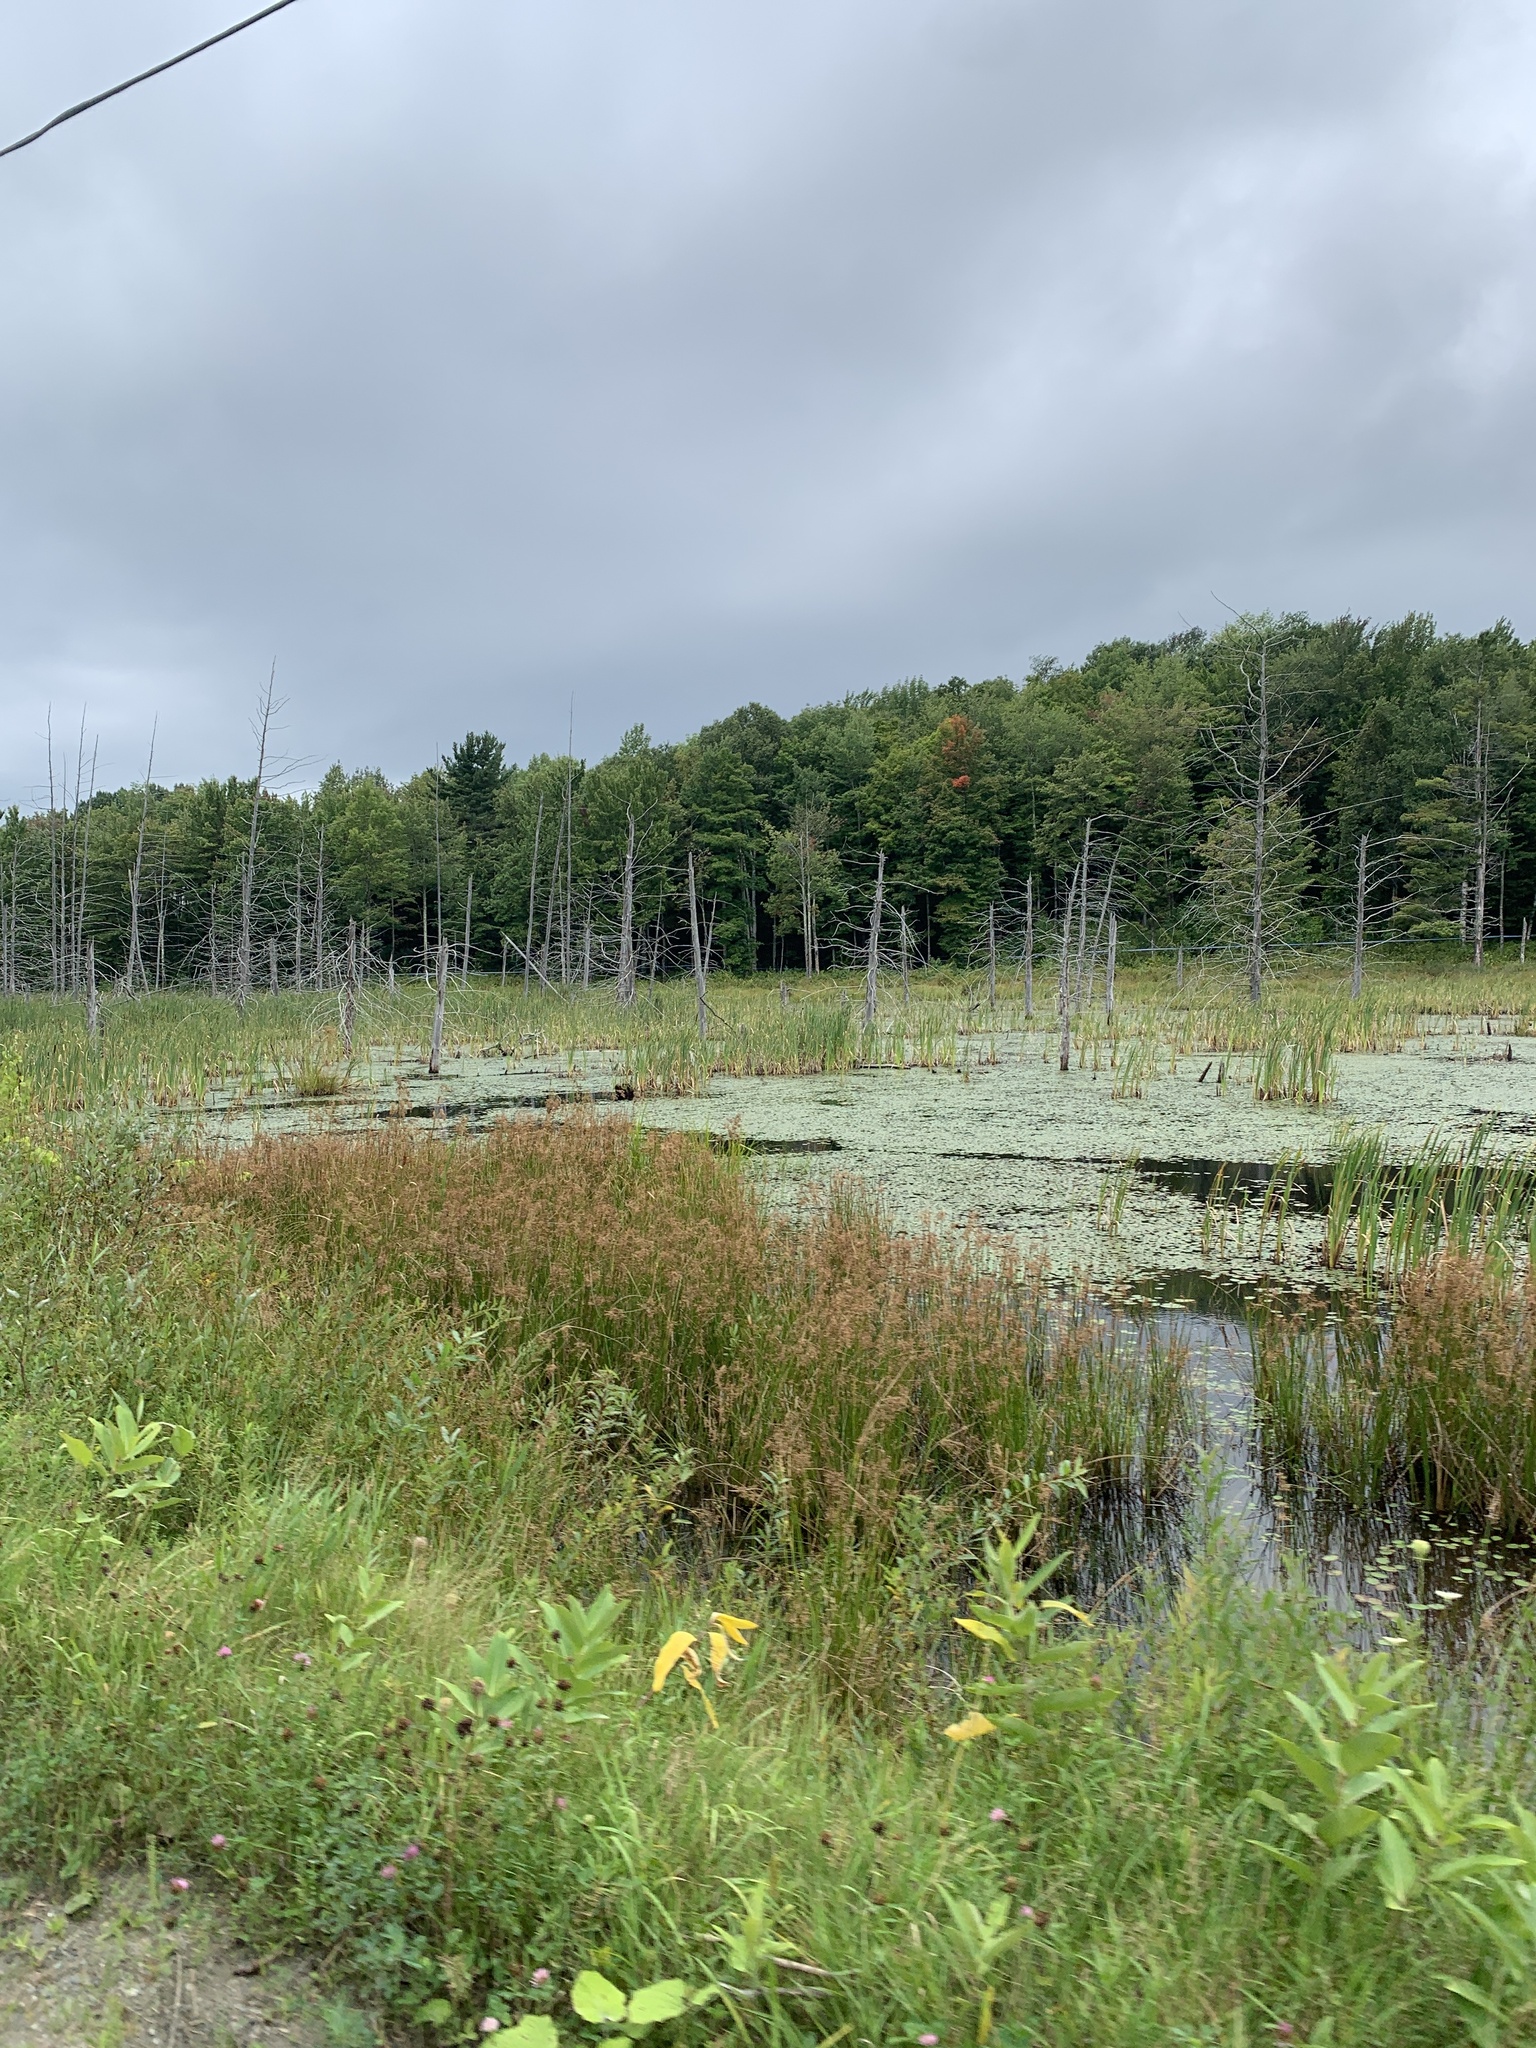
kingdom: Plantae
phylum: Tracheophyta
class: Magnoliopsida
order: Gentianales
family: Apocynaceae
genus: Asclepias
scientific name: Asclepias syriaca
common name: Common milkweed
